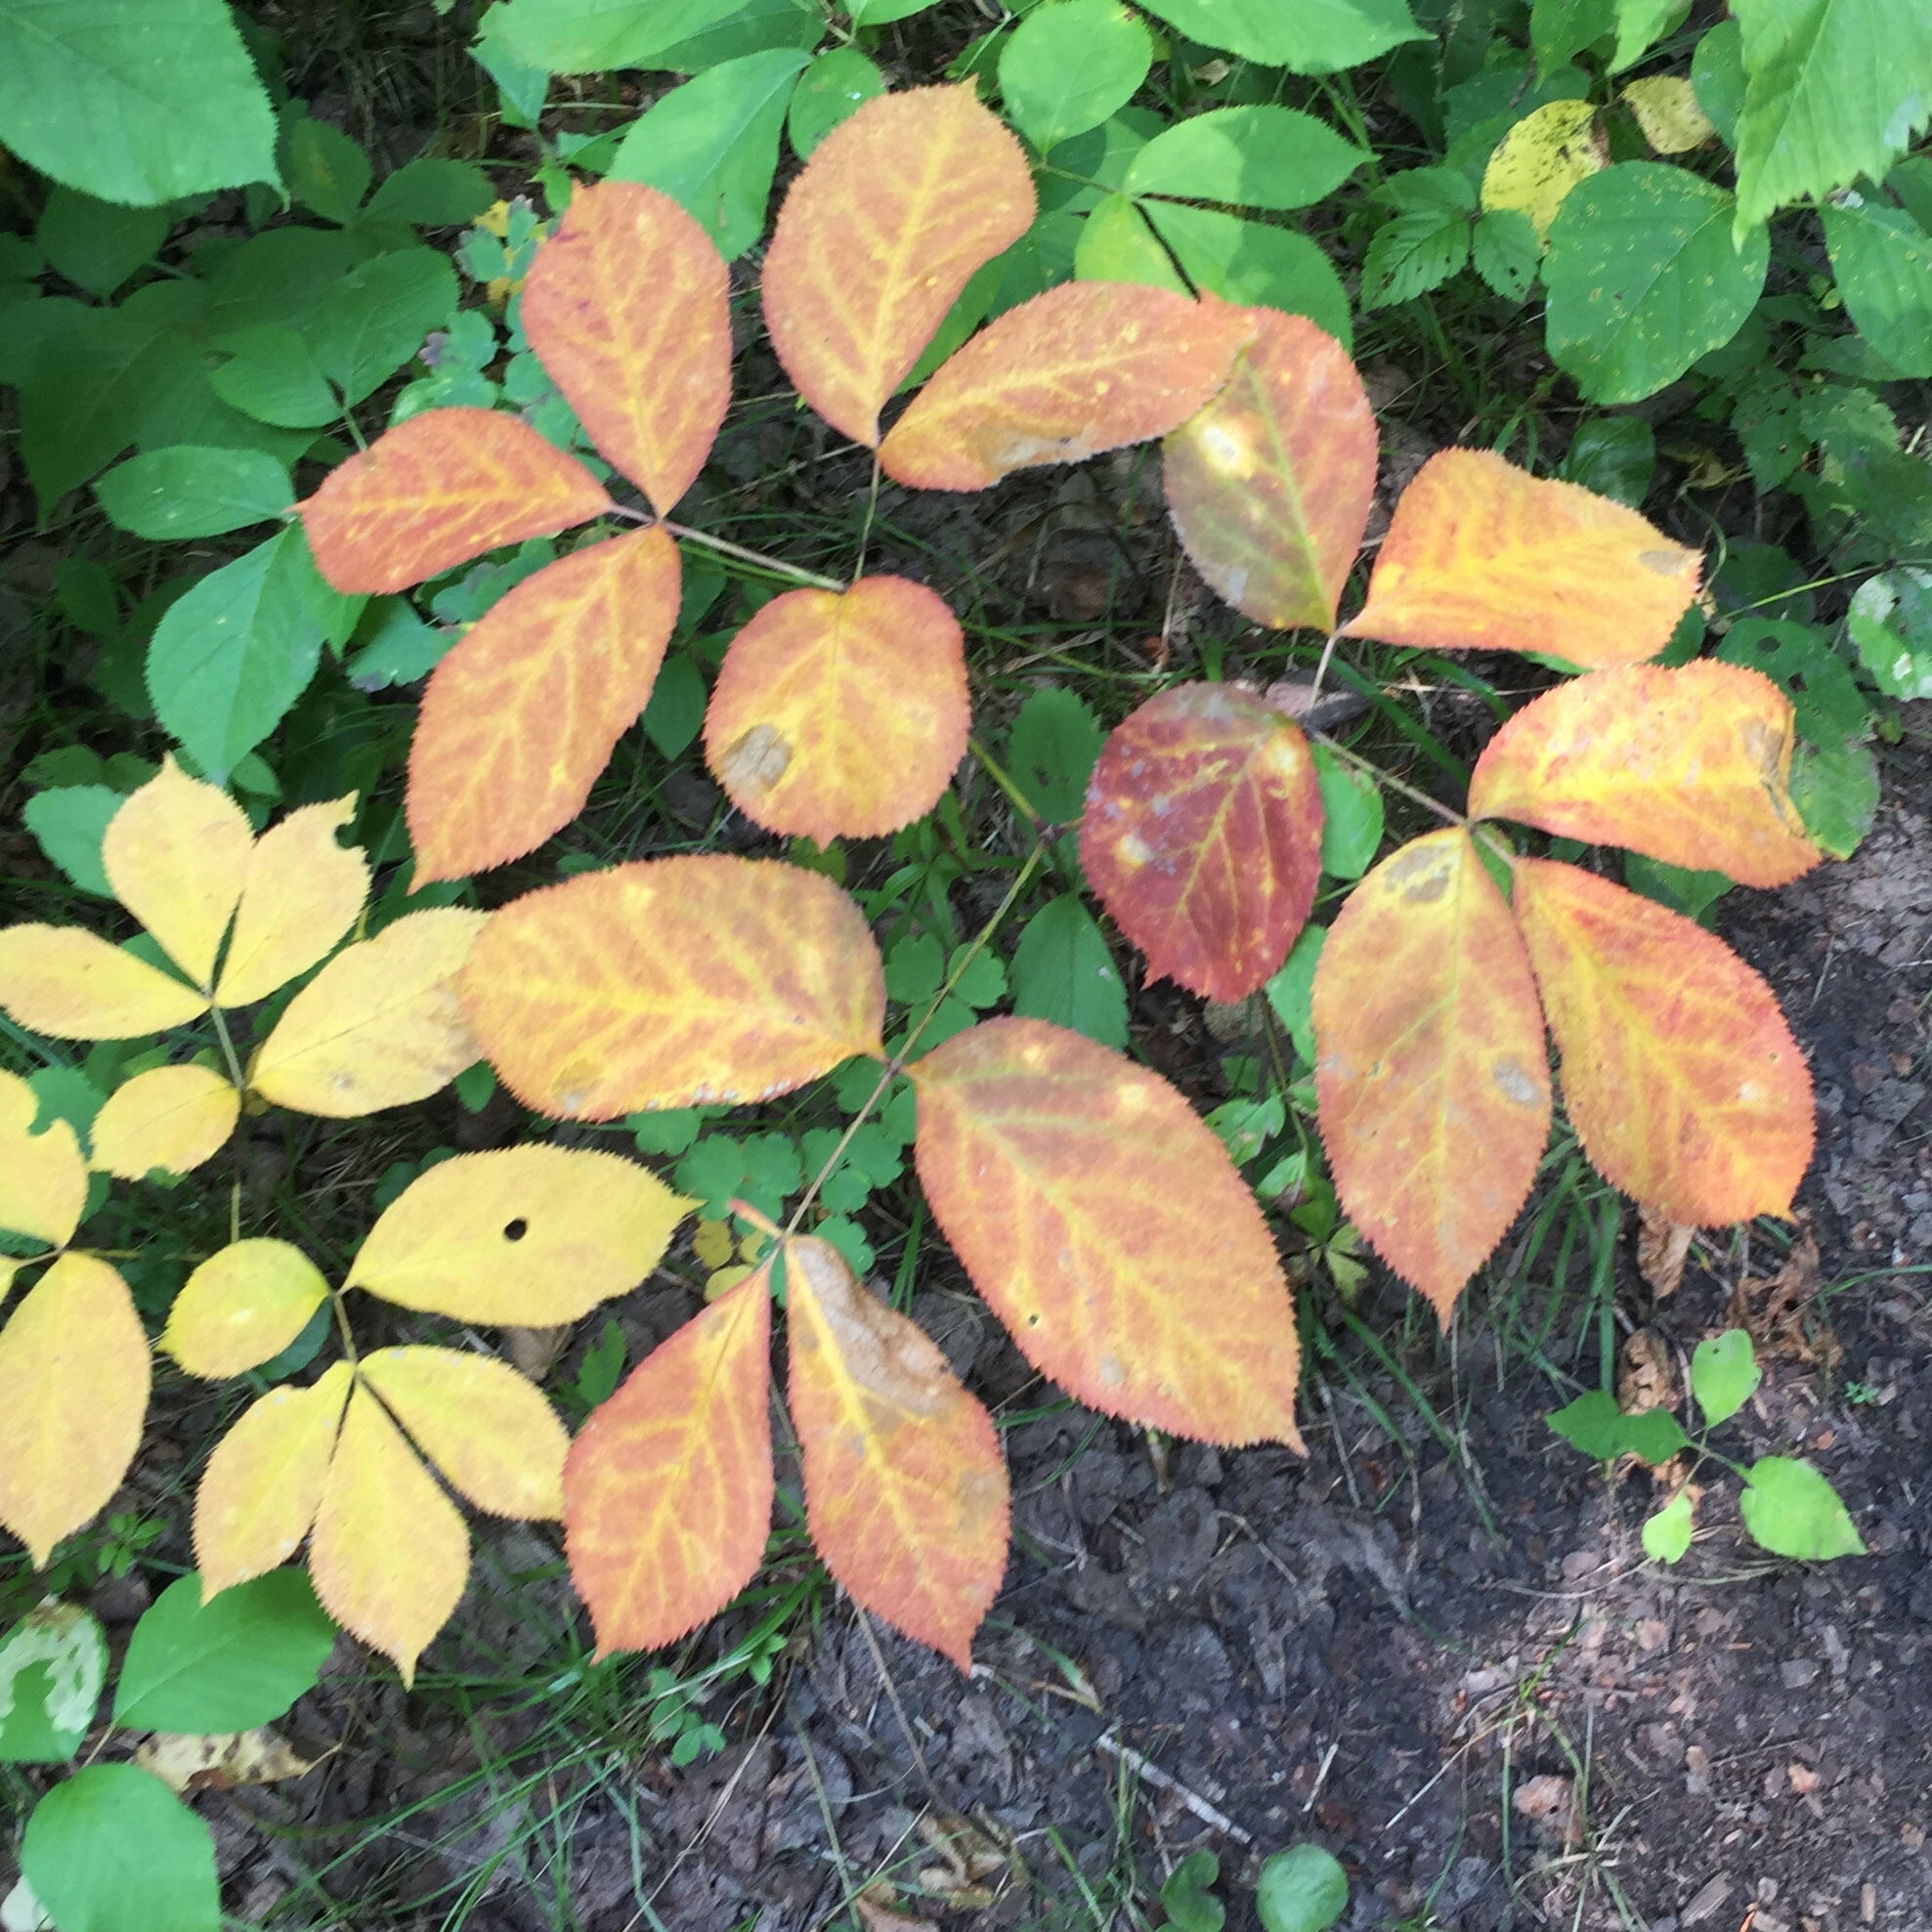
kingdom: Plantae
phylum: Tracheophyta
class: Magnoliopsida
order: Apiales
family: Araliaceae
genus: Aralia
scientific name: Aralia nudicaulis
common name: Wild sarsaparilla
